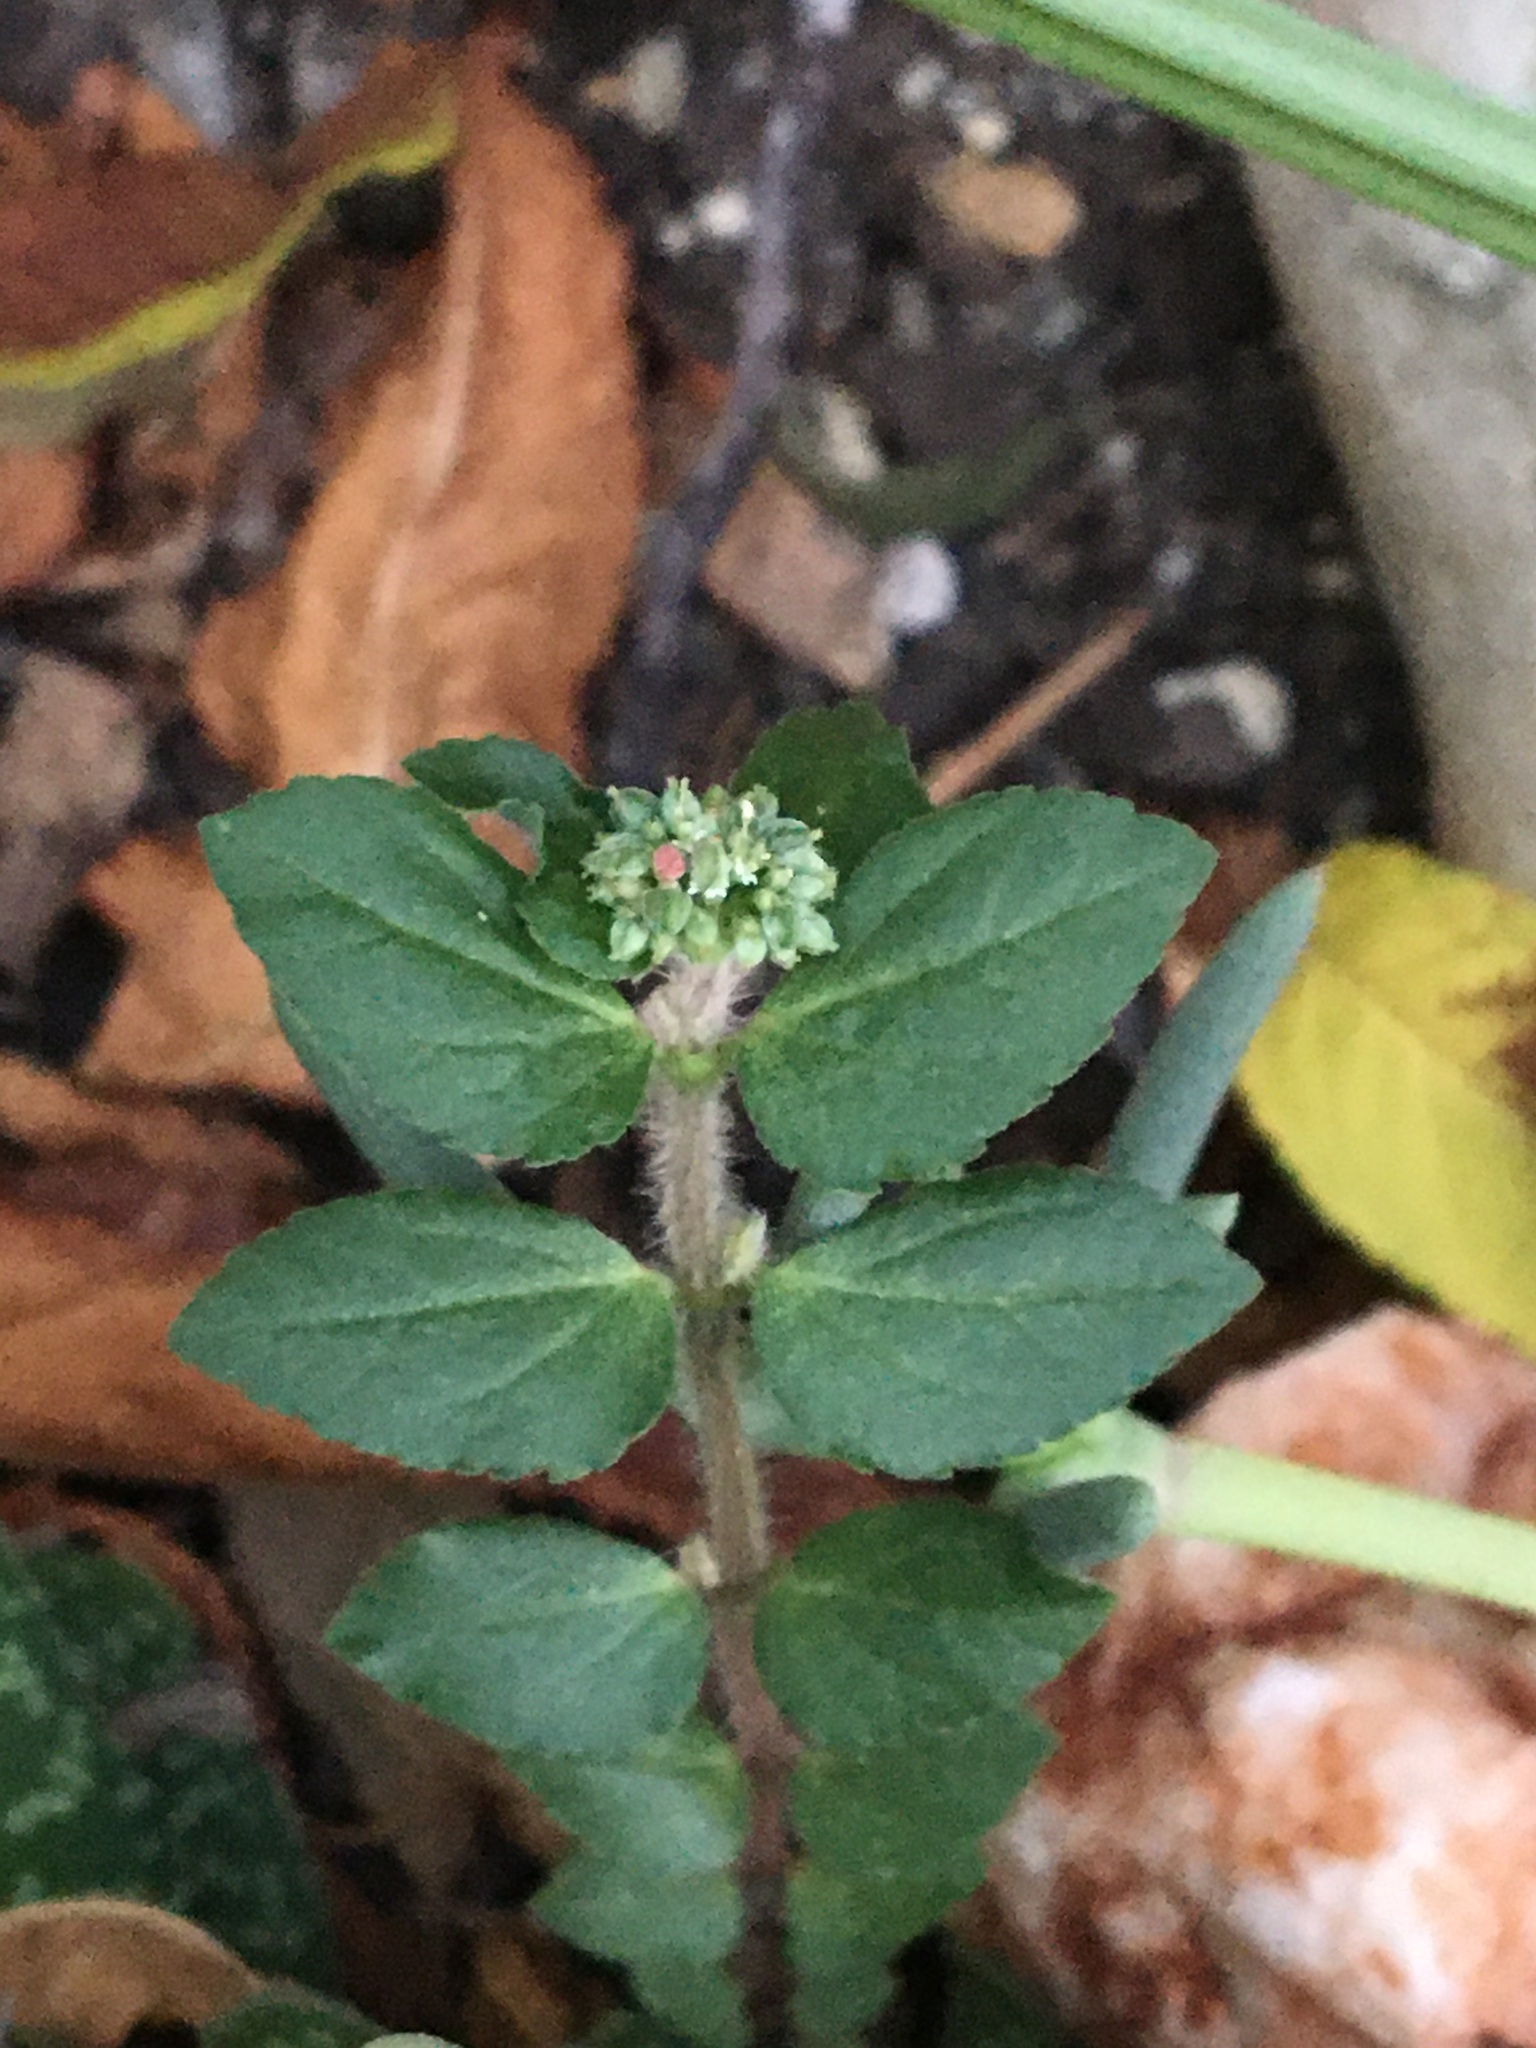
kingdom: Plantae
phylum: Tracheophyta
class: Magnoliopsida
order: Malpighiales
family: Euphorbiaceae
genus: Euphorbia
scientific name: Euphorbia ophthalmica
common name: Florida hammock sandmat
